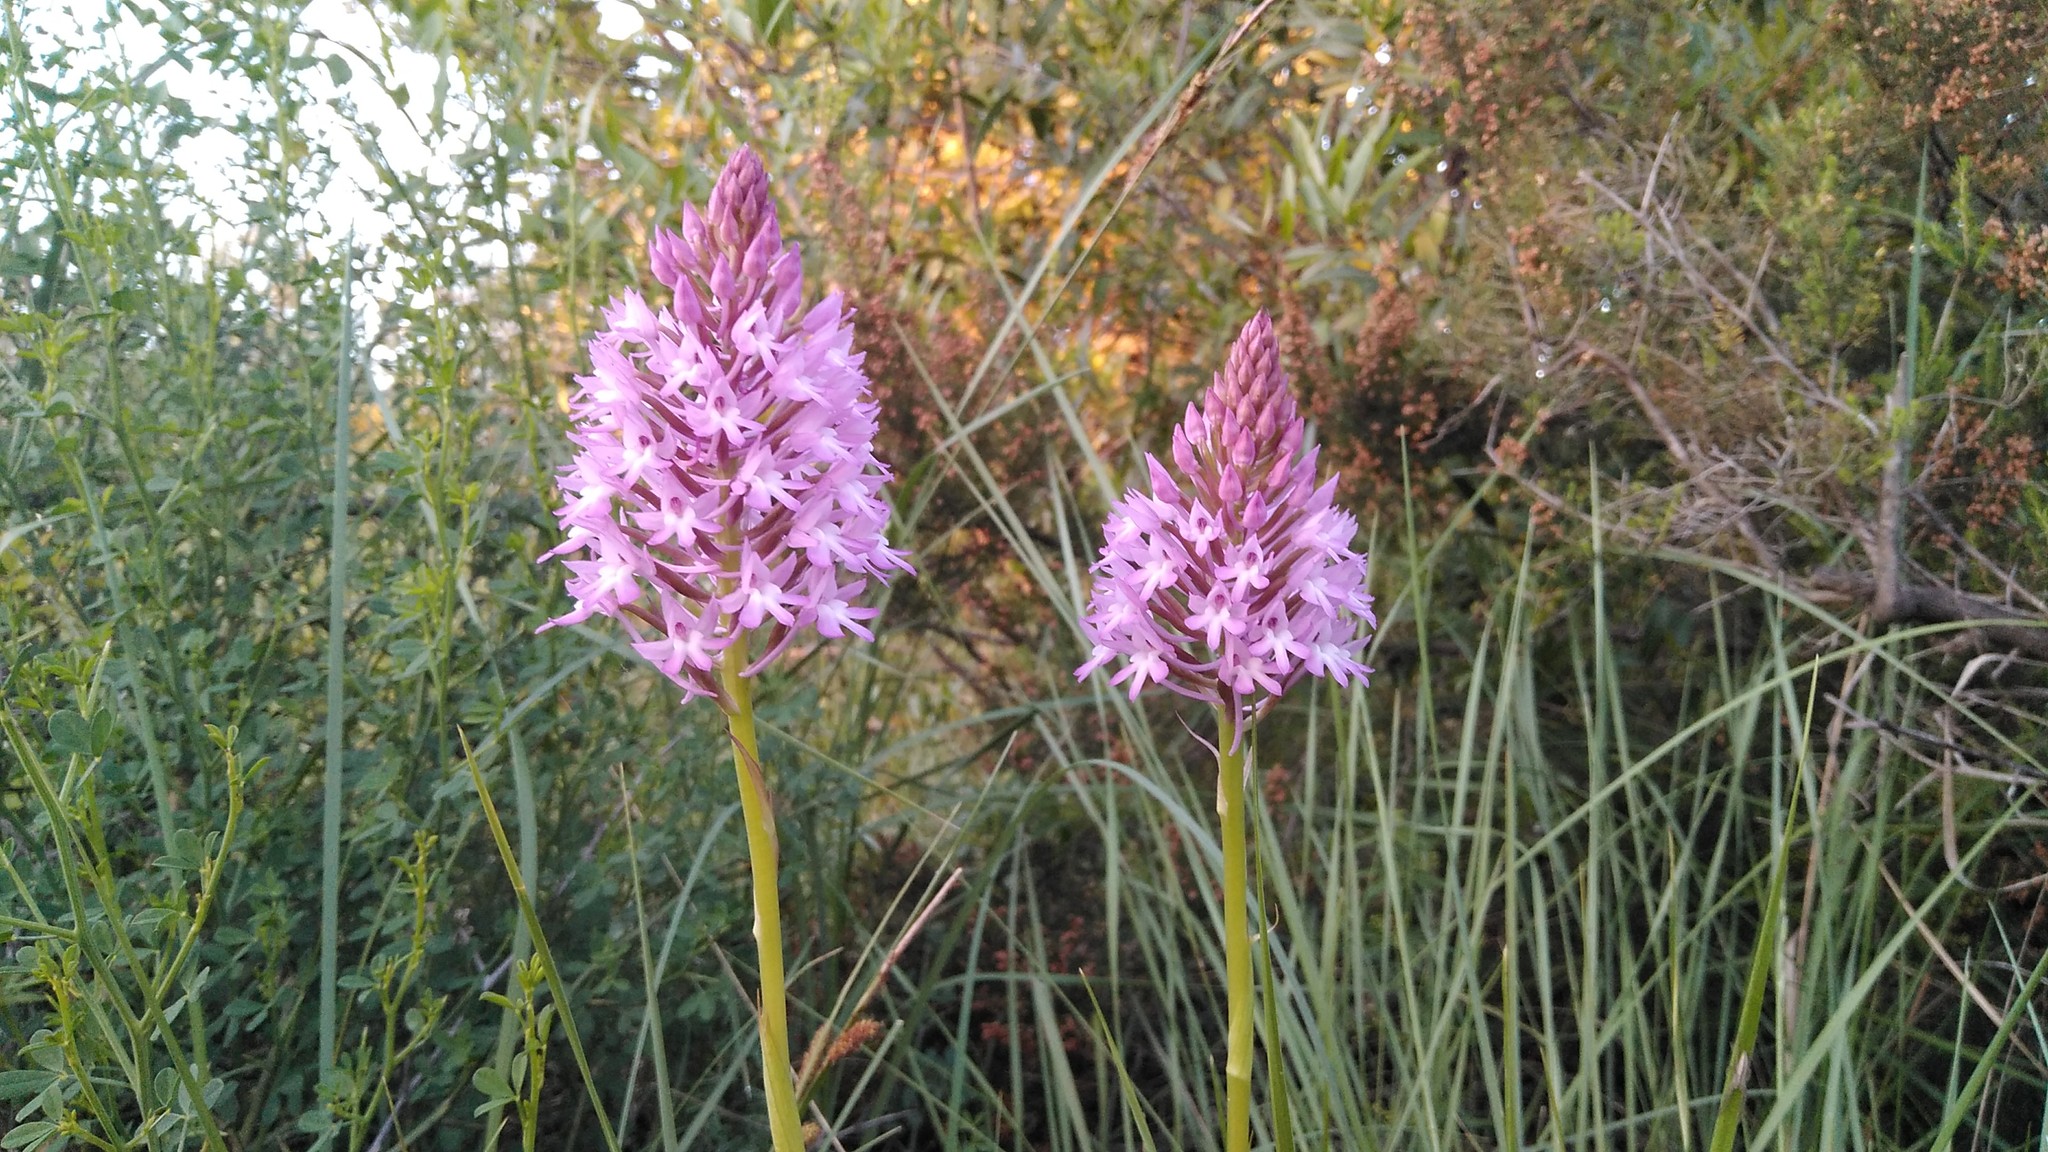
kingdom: Plantae
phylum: Tracheophyta
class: Liliopsida
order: Asparagales
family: Orchidaceae
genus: Anacamptis
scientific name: Anacamptis pyramidalis
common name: Pyramidal orchid
